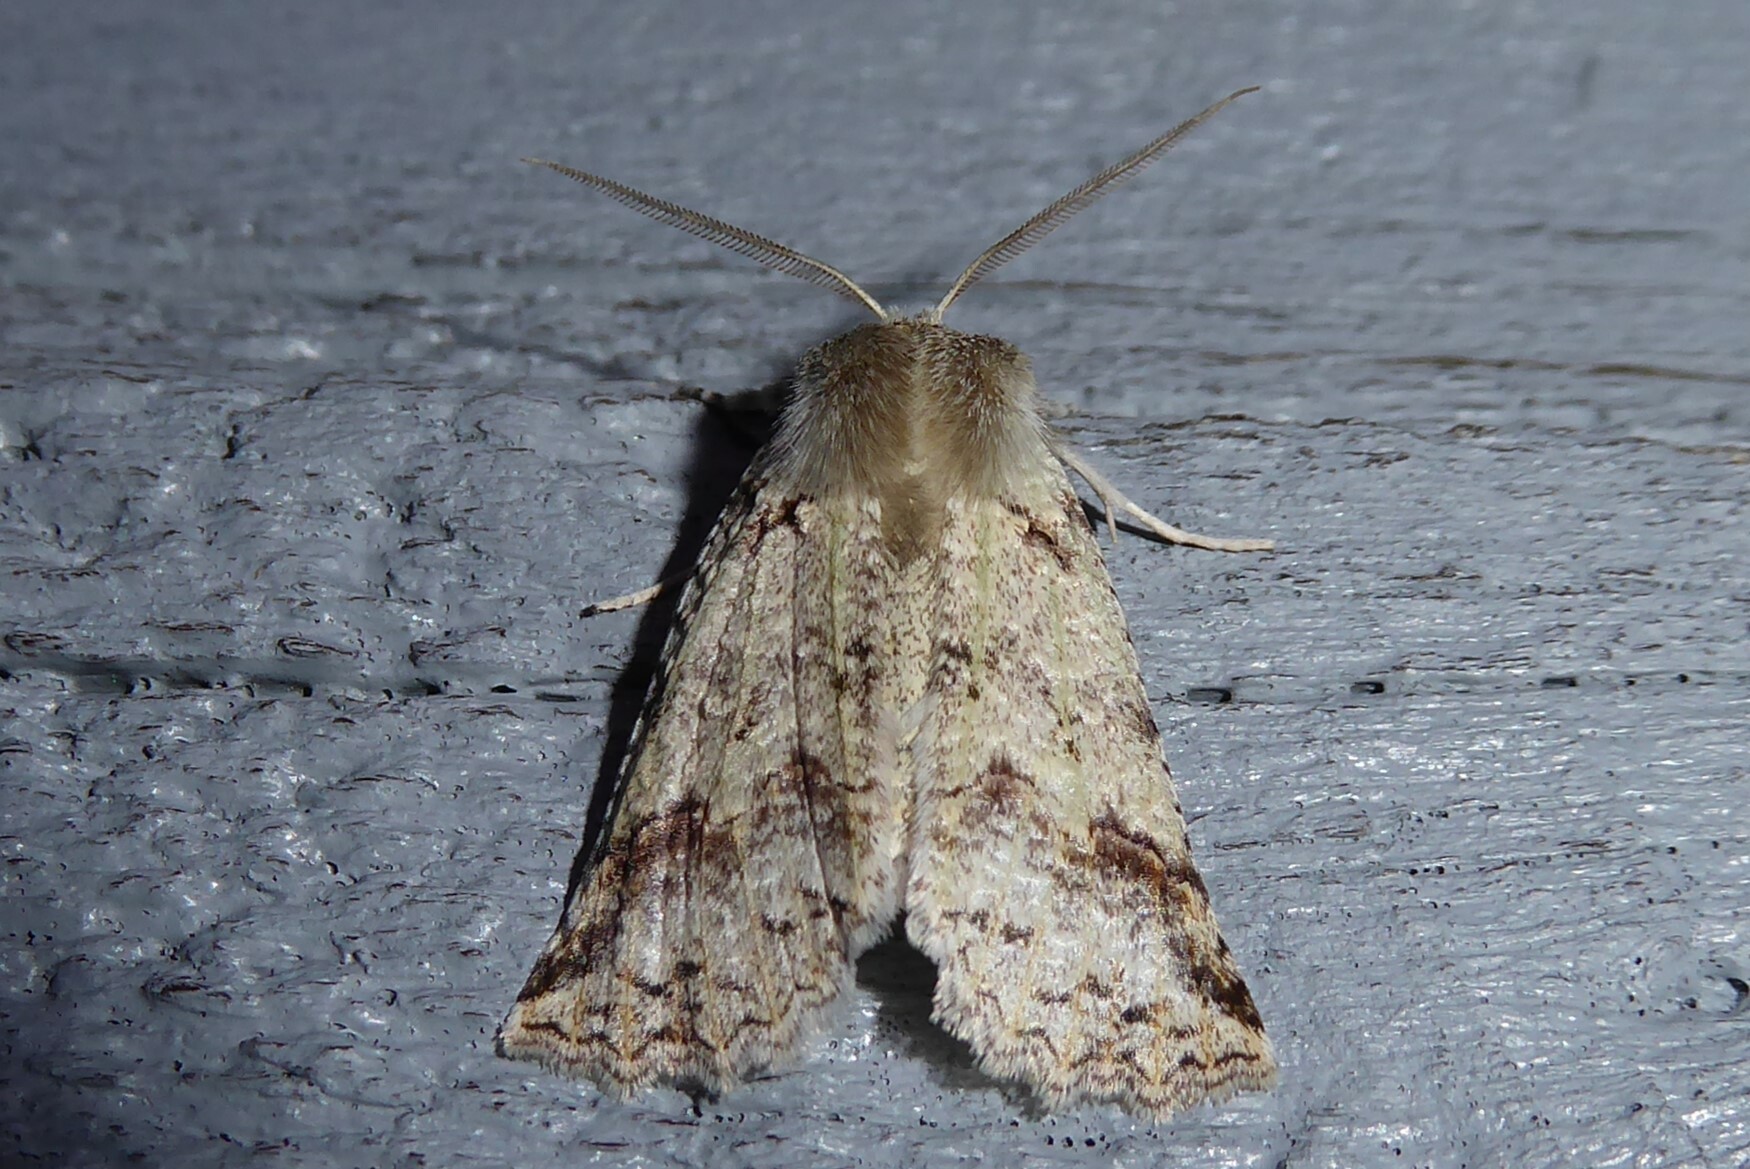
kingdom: Animalia
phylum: Arthropoda
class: Insecta
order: Lepidoptera
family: Geometridae
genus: Declana
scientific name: Declana floccosa
